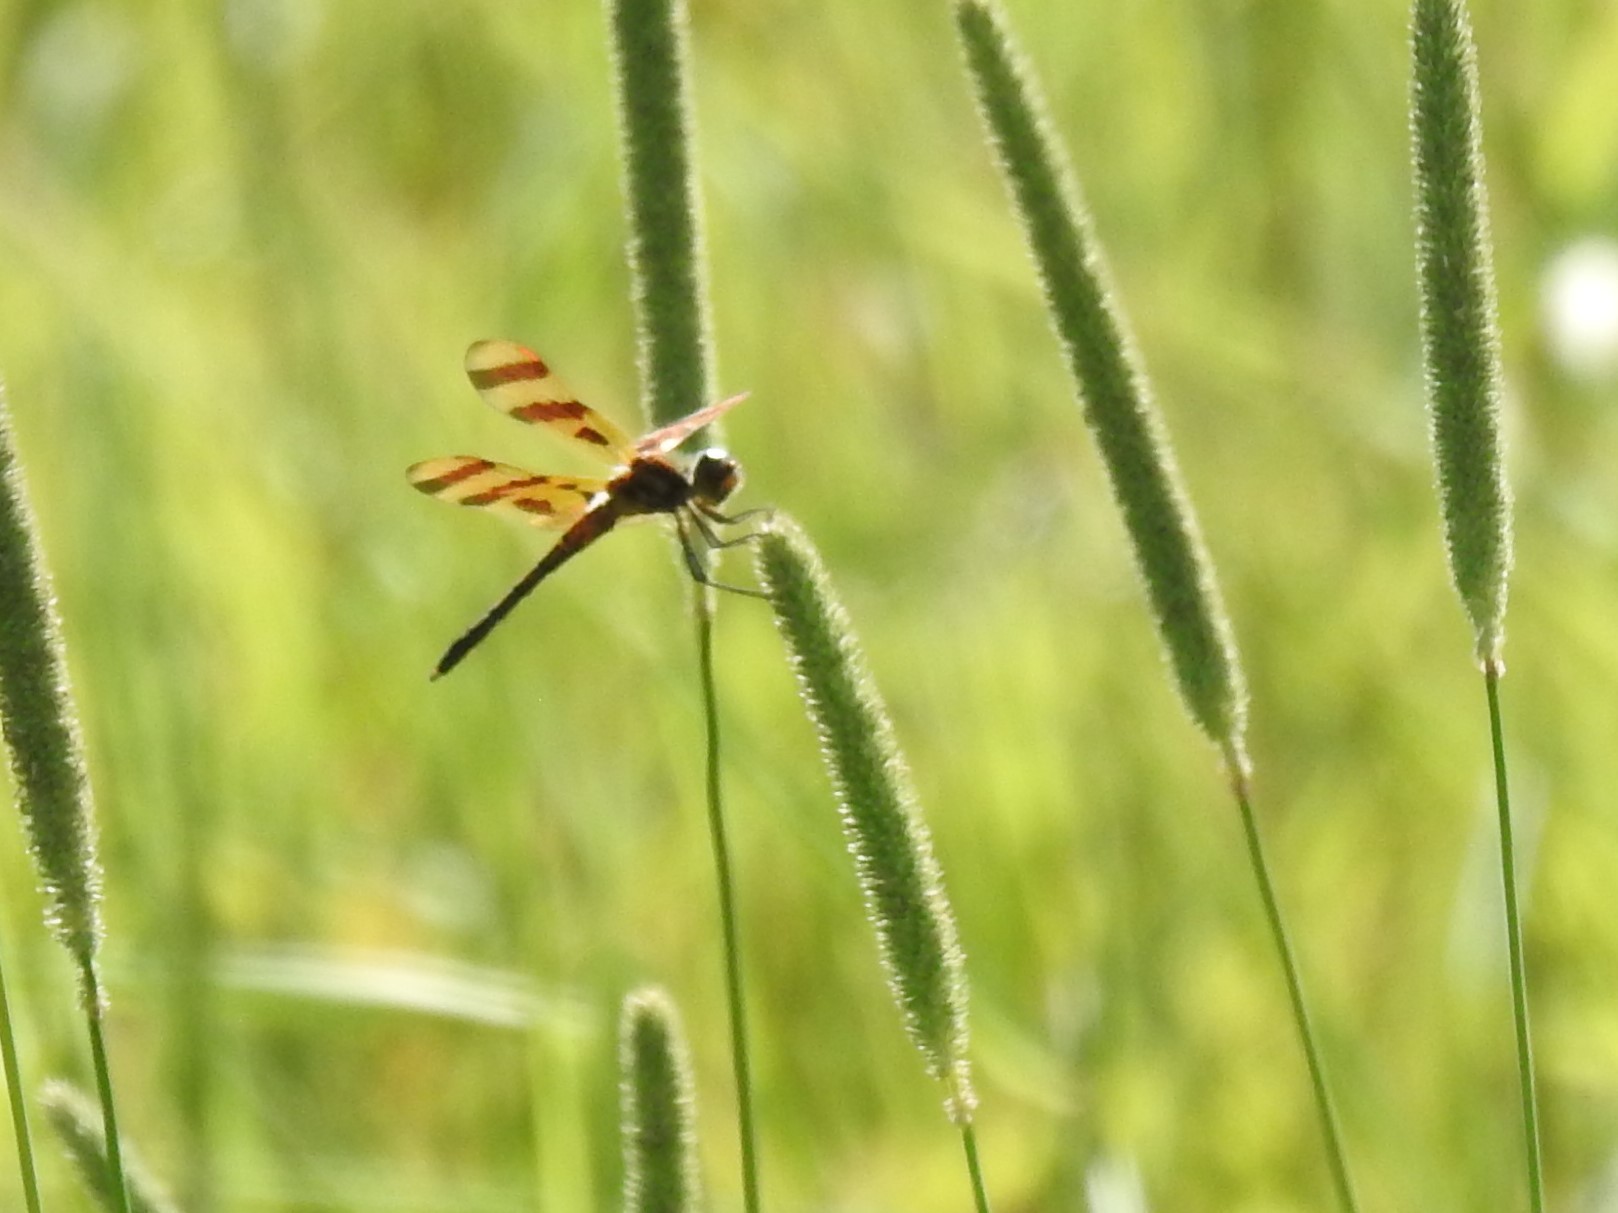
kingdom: Animalia
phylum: Arthropoda
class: Insecta
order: Odonata
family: Libellulidae
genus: Celithemis
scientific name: Celithemis eponina
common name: Halloween pennant
